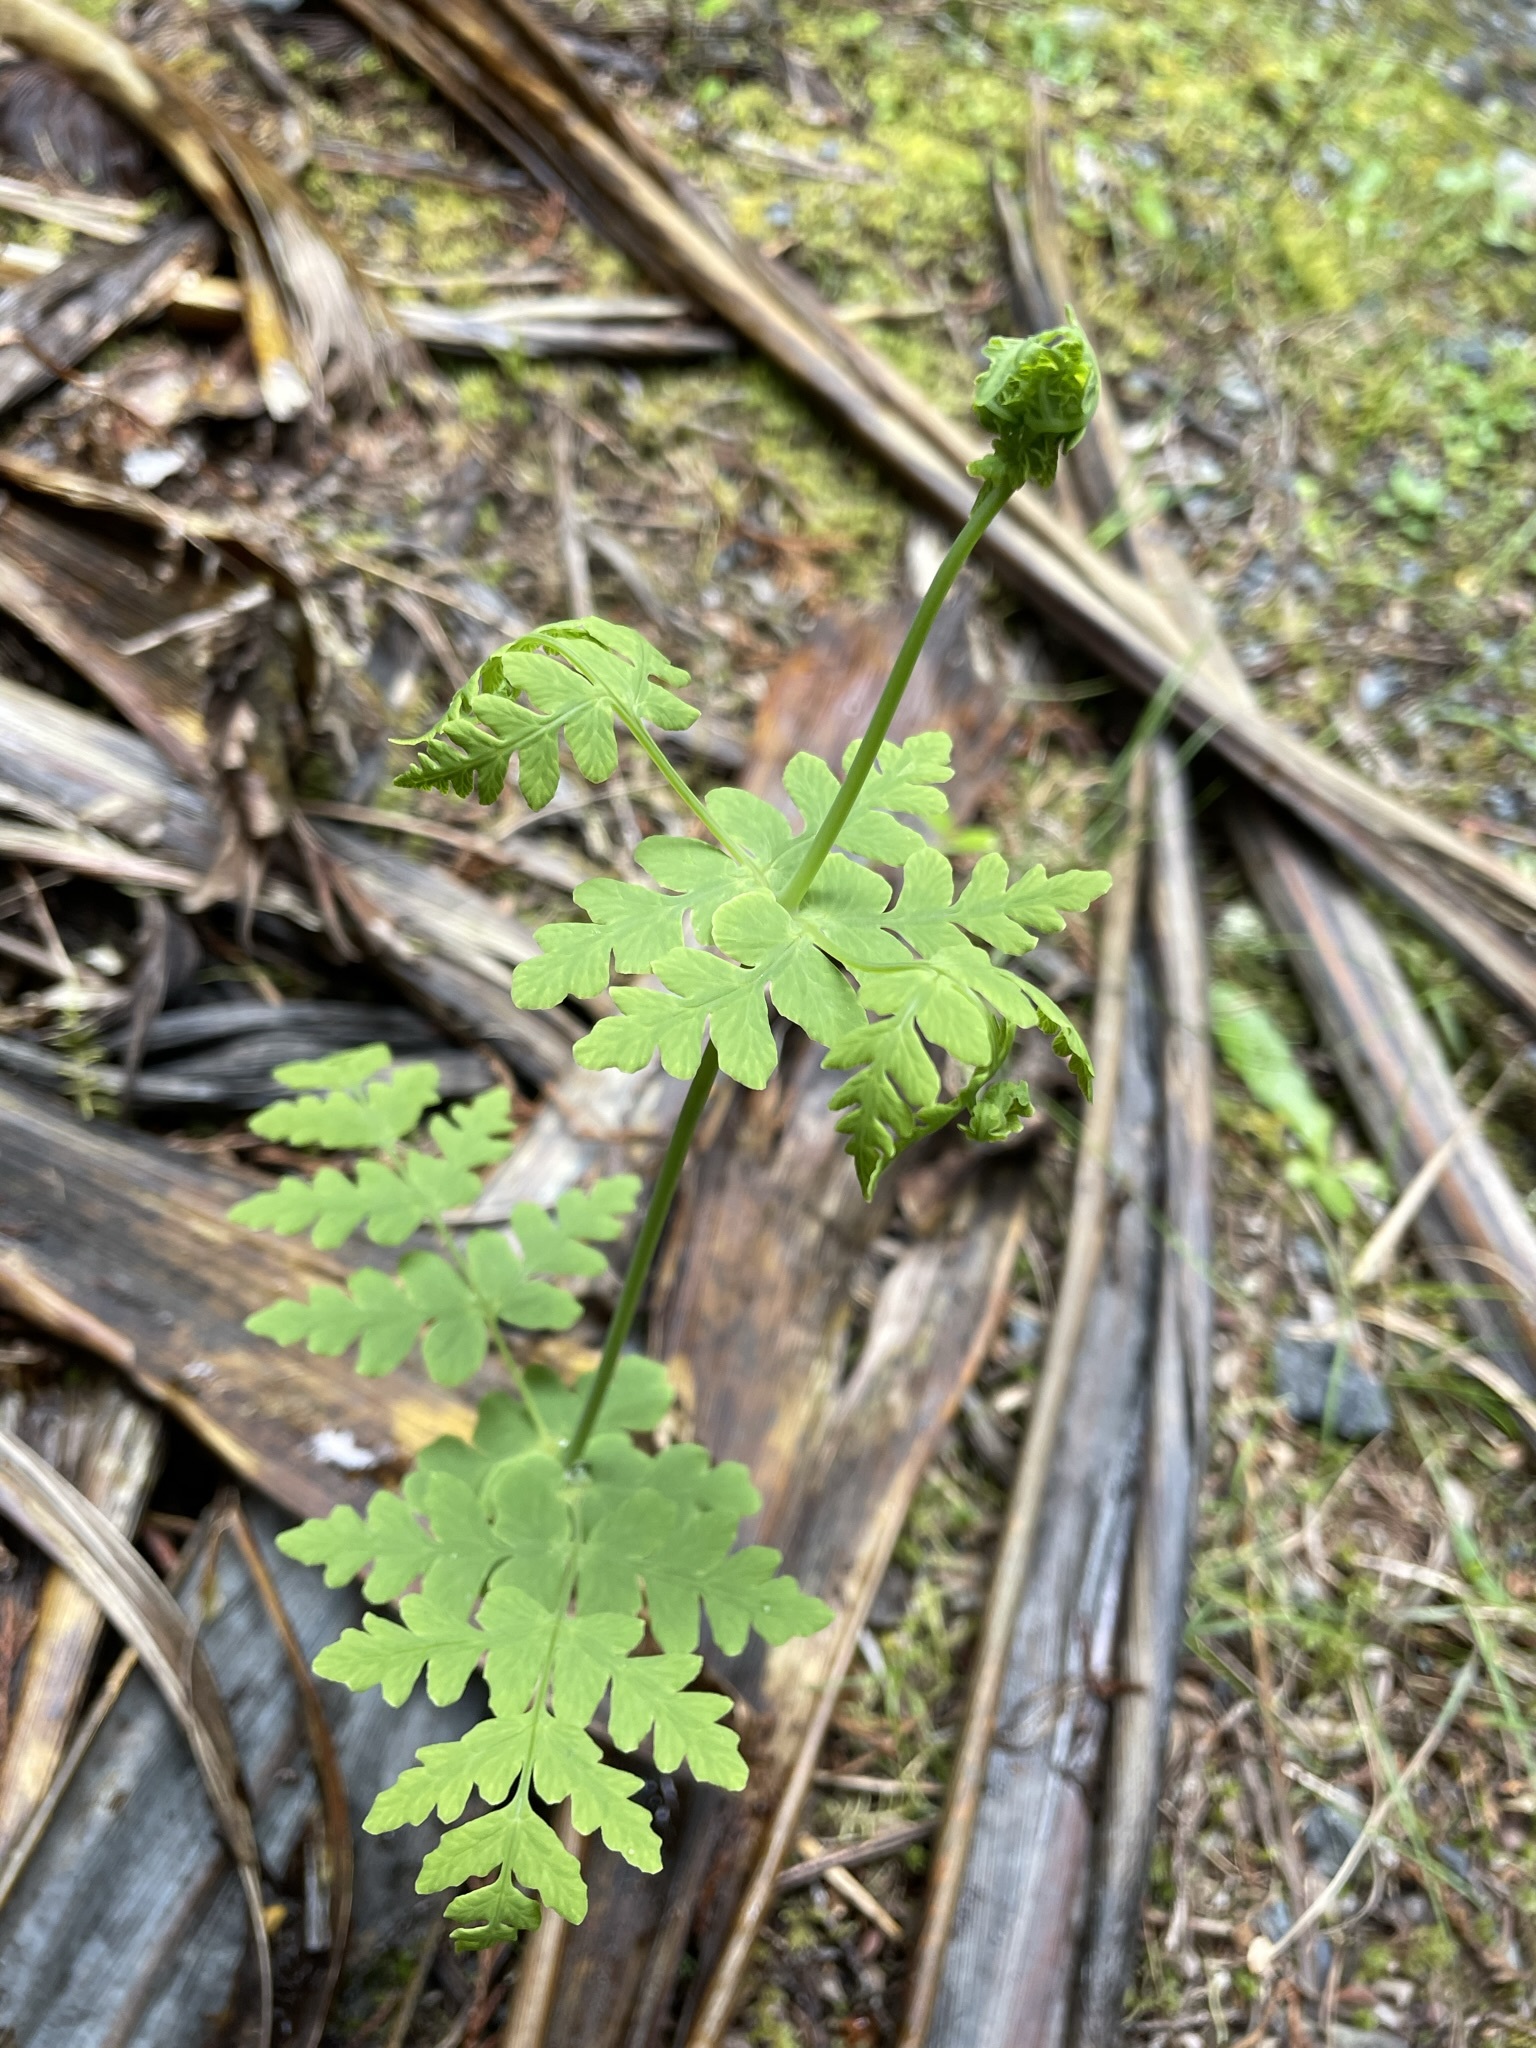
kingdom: Plantae
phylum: Tracheophyta
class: Polypodiopsida
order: Polypodiales
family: Dennstaedtiaceae
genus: Histiopteris
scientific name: Histiopteris incisa
